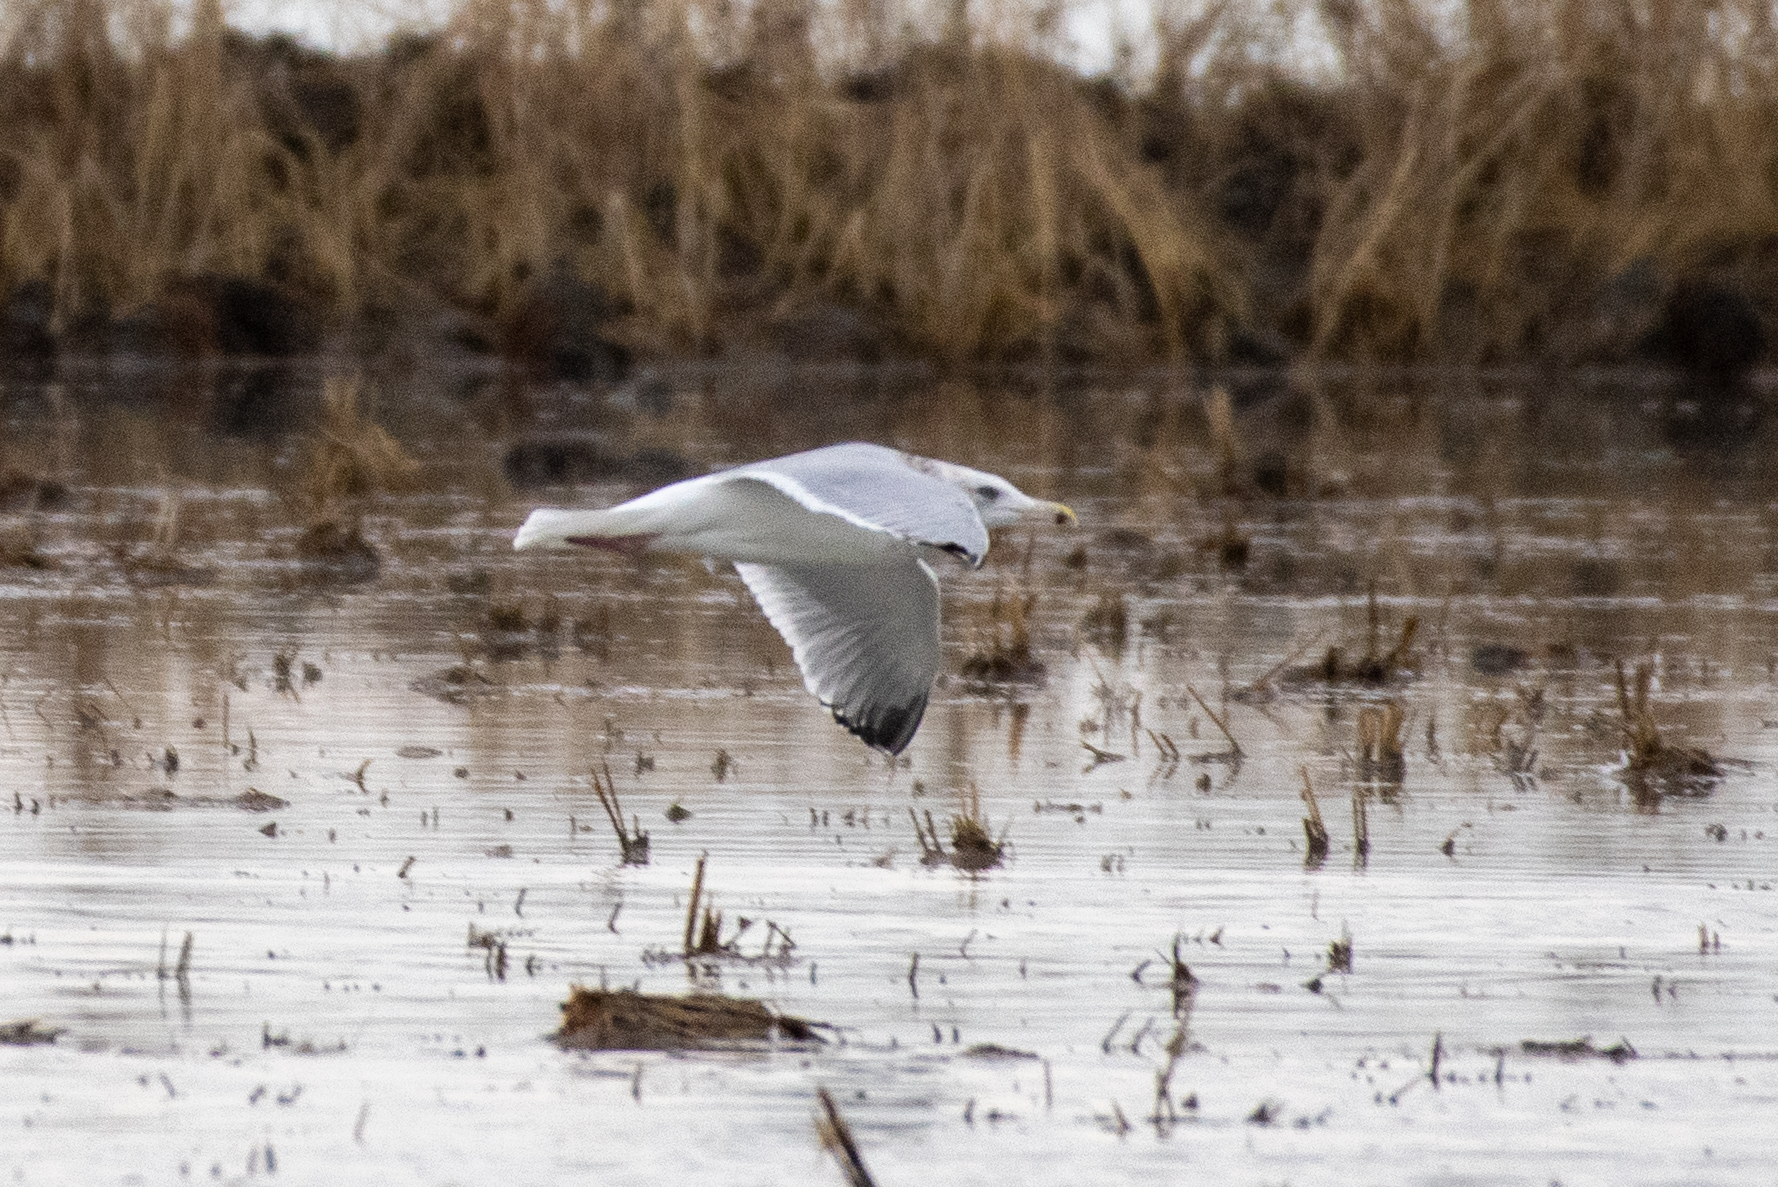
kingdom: Animalia
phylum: Chordata
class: Aves
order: Charadriiformes
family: Laridae
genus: Larus
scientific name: Larus argentatus
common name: Herring gull
